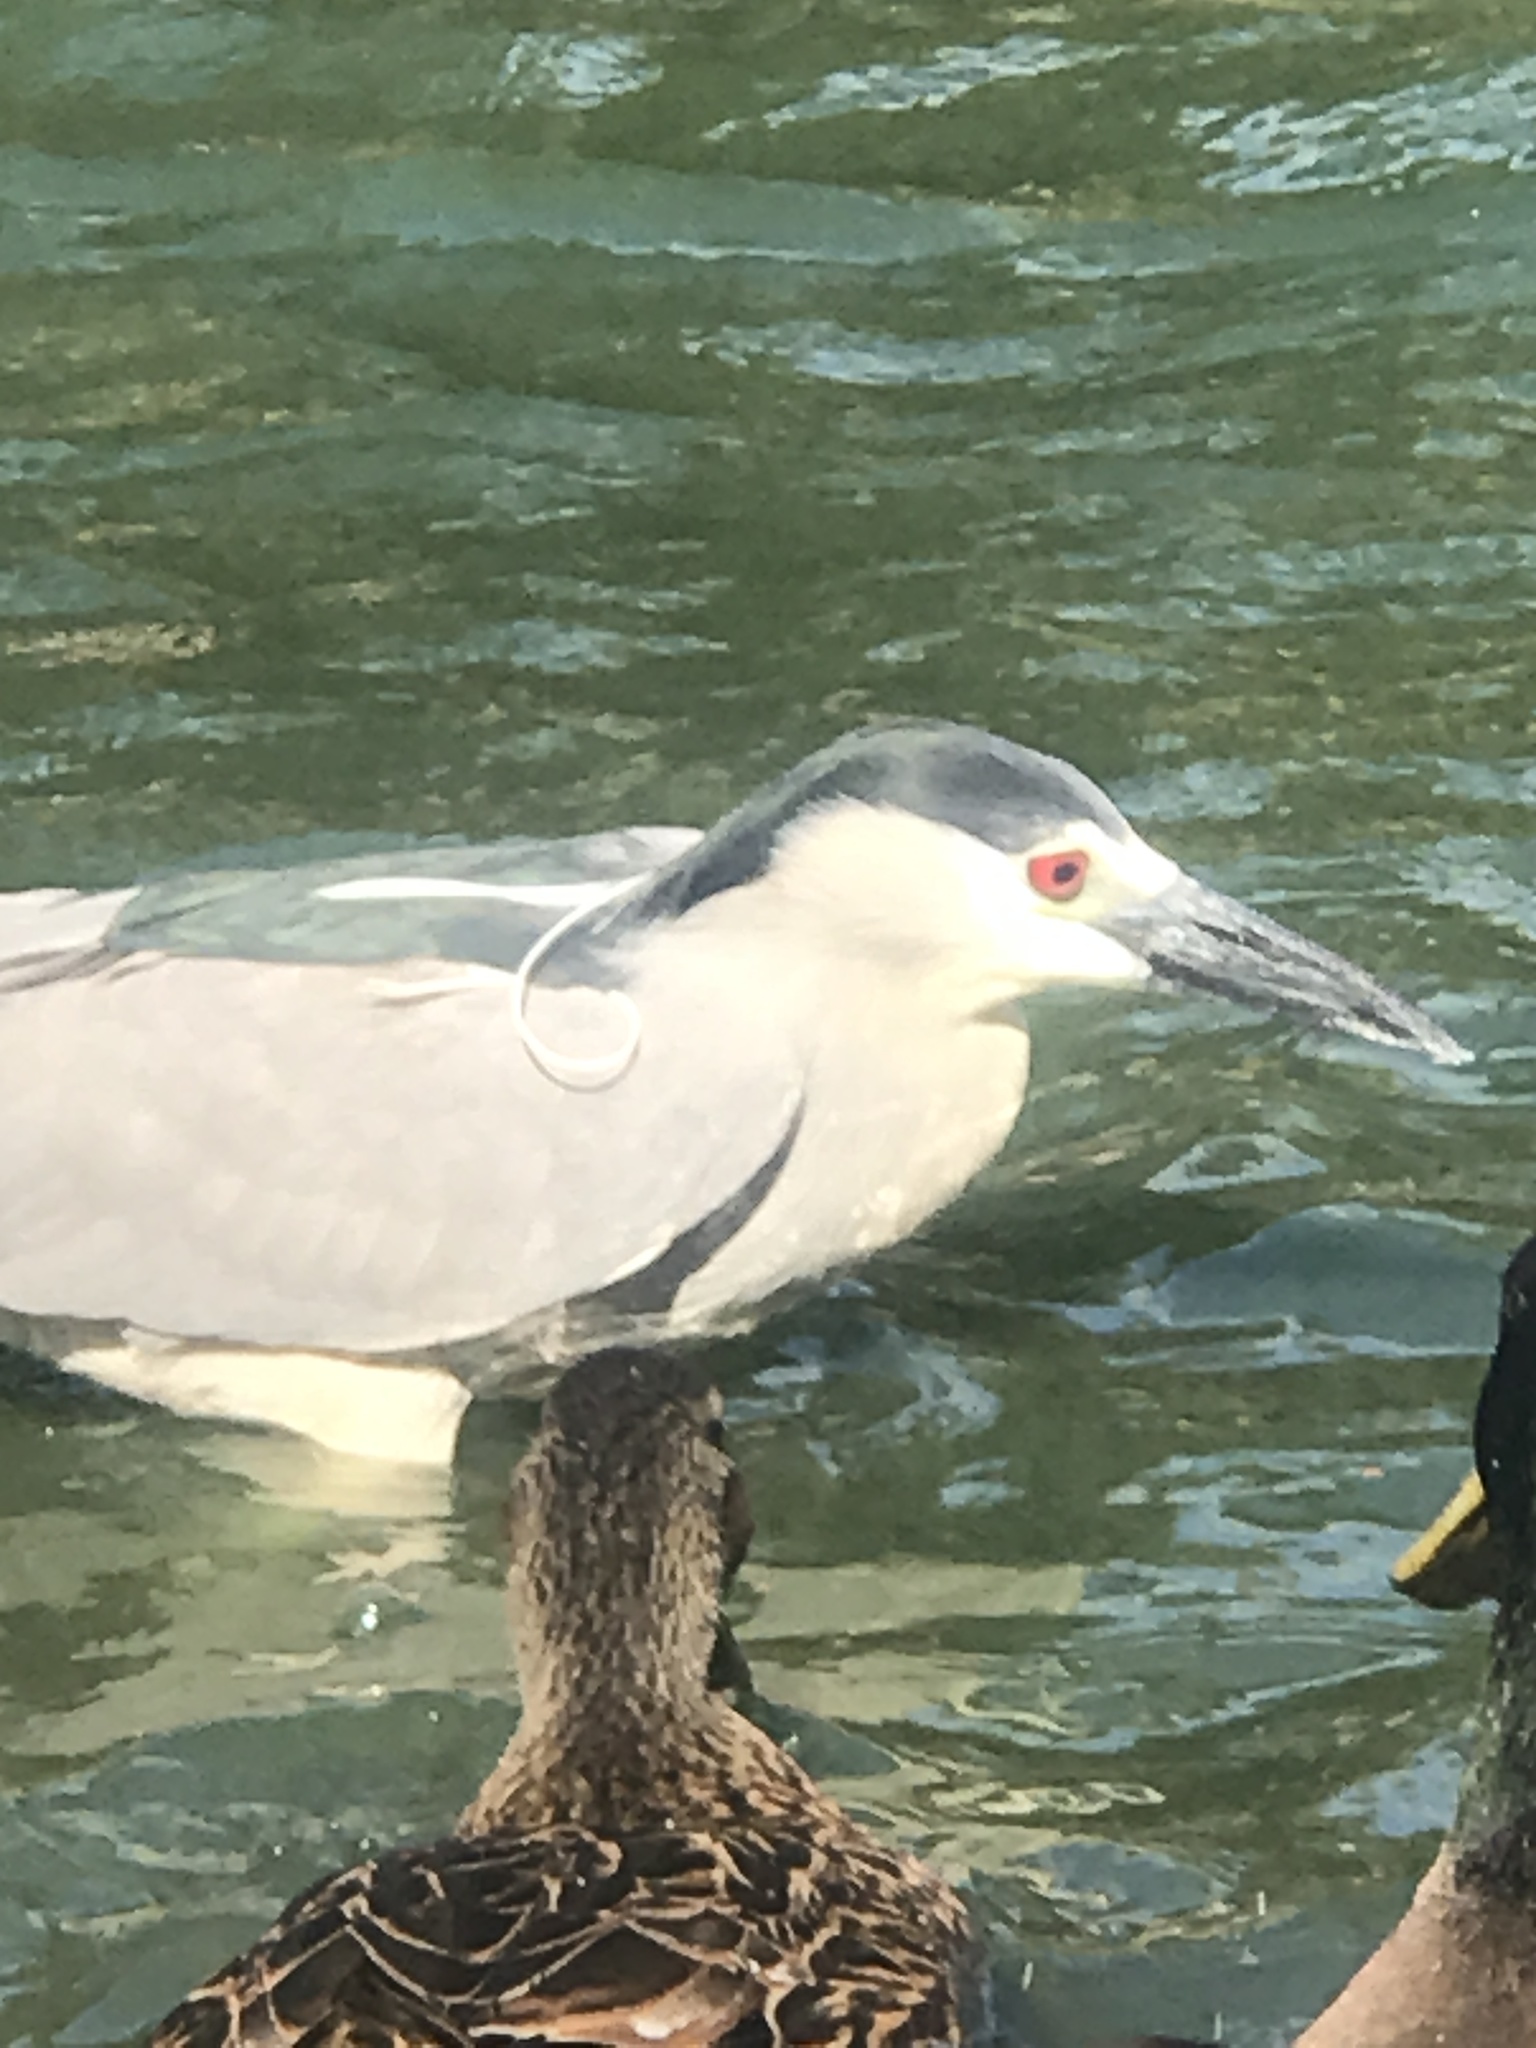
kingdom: Animalia
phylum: Chordata
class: Aves
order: Pelecaniformes
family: Ardeidae
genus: Nycticorax
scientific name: Nycticorax nycticorax
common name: Black-crowned night heron
